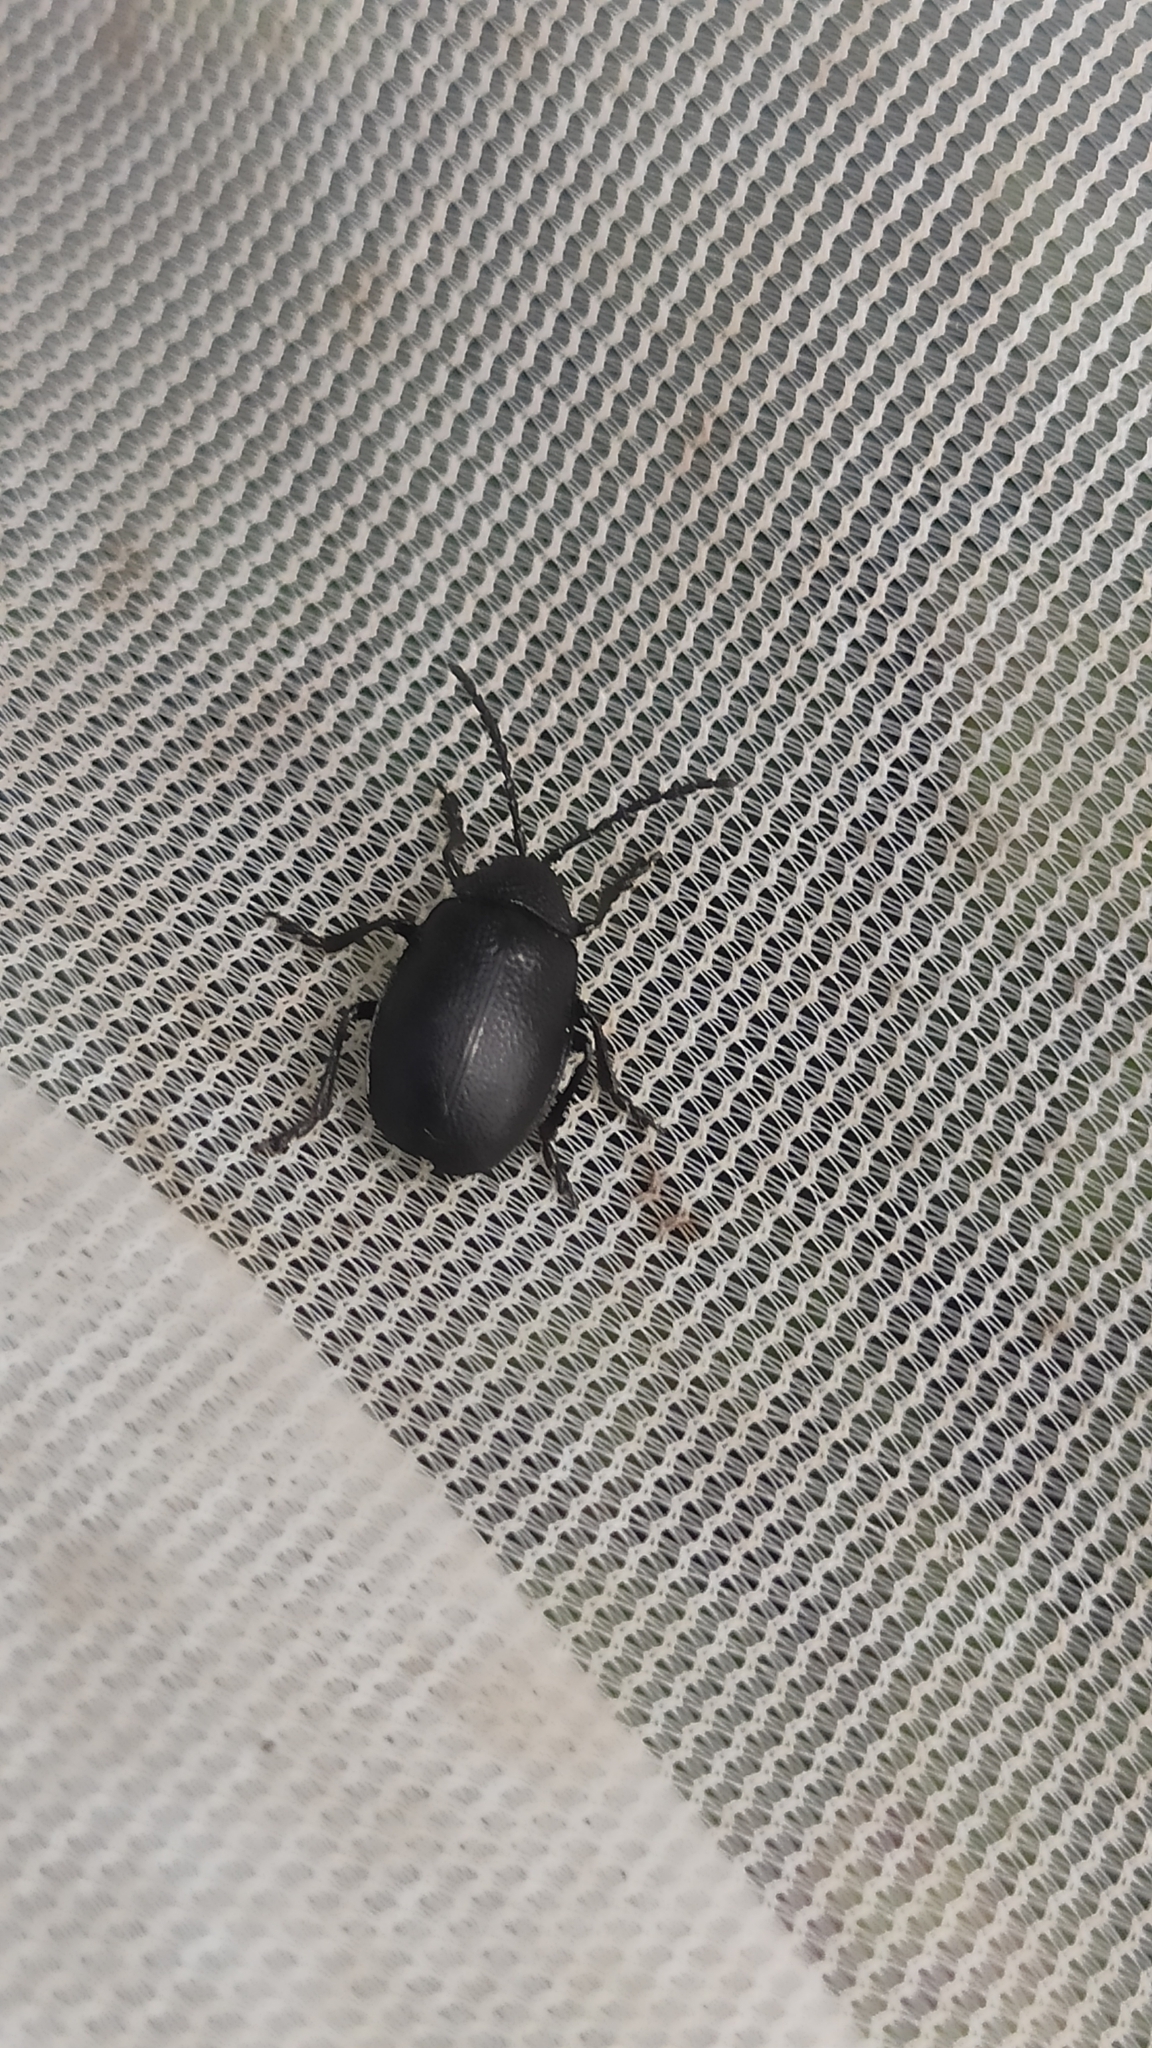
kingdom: Animalia
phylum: Arthropoda
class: Insecta
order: Coleoptera
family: Chrysomelidae
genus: Galeruca
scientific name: Galeruca tanaceti
